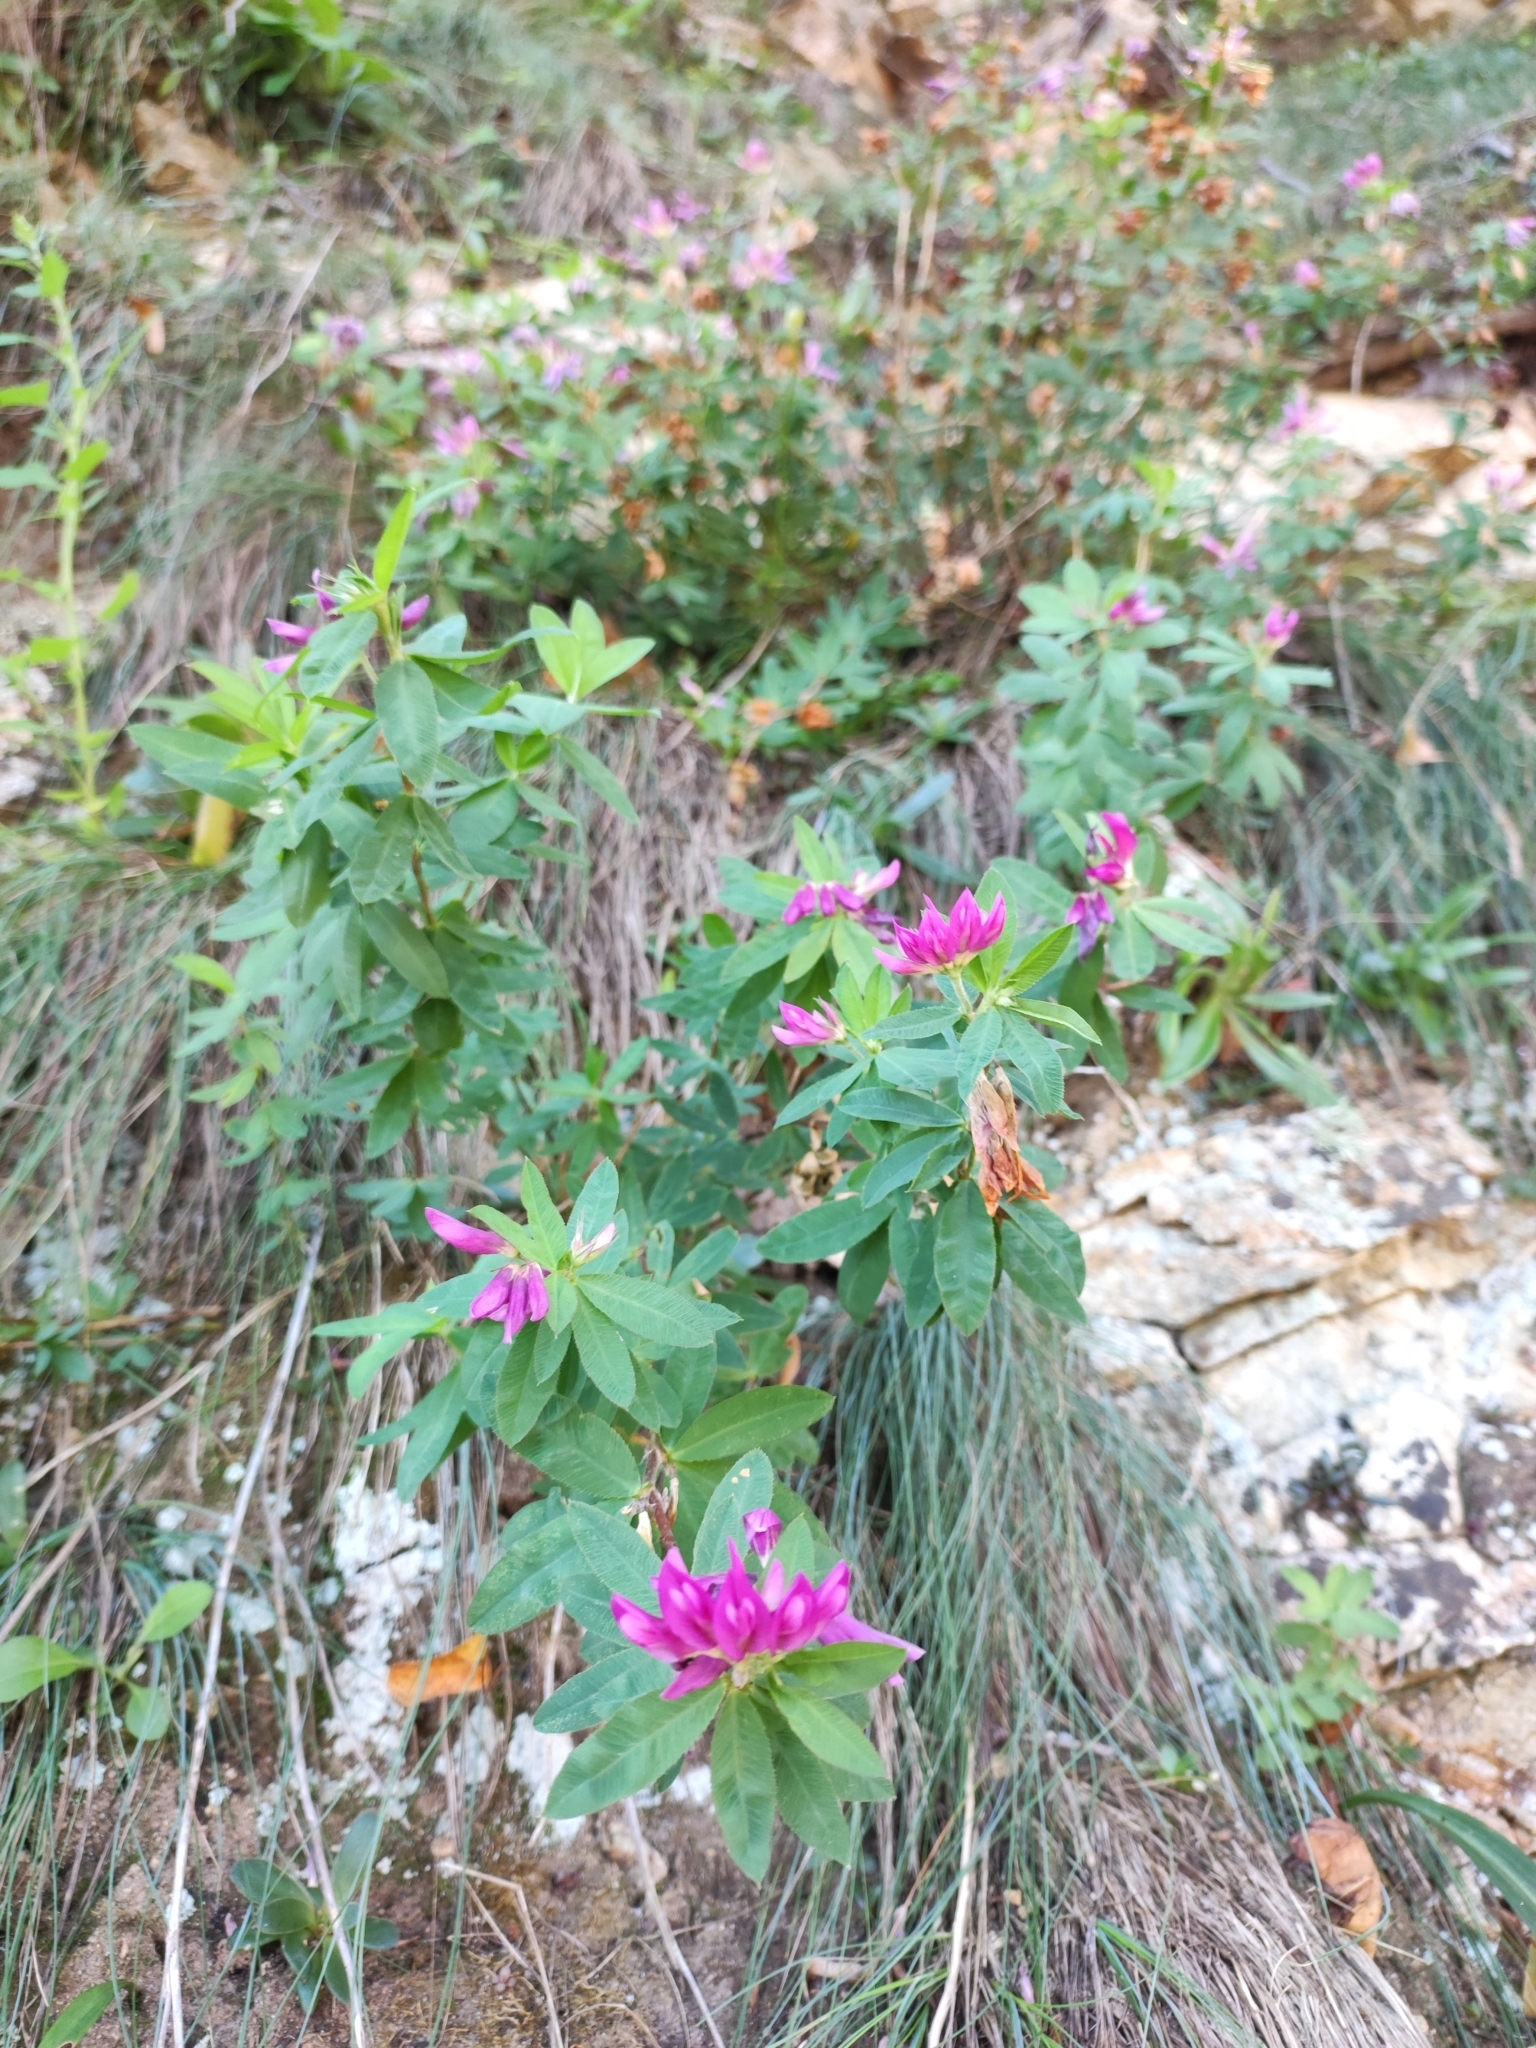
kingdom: Plantae
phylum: Tracheophyta
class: Magnoliopsida
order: Fabales
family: Fabaceae
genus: Trifolium
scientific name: Trifolium lupinaster
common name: Lupine clover
